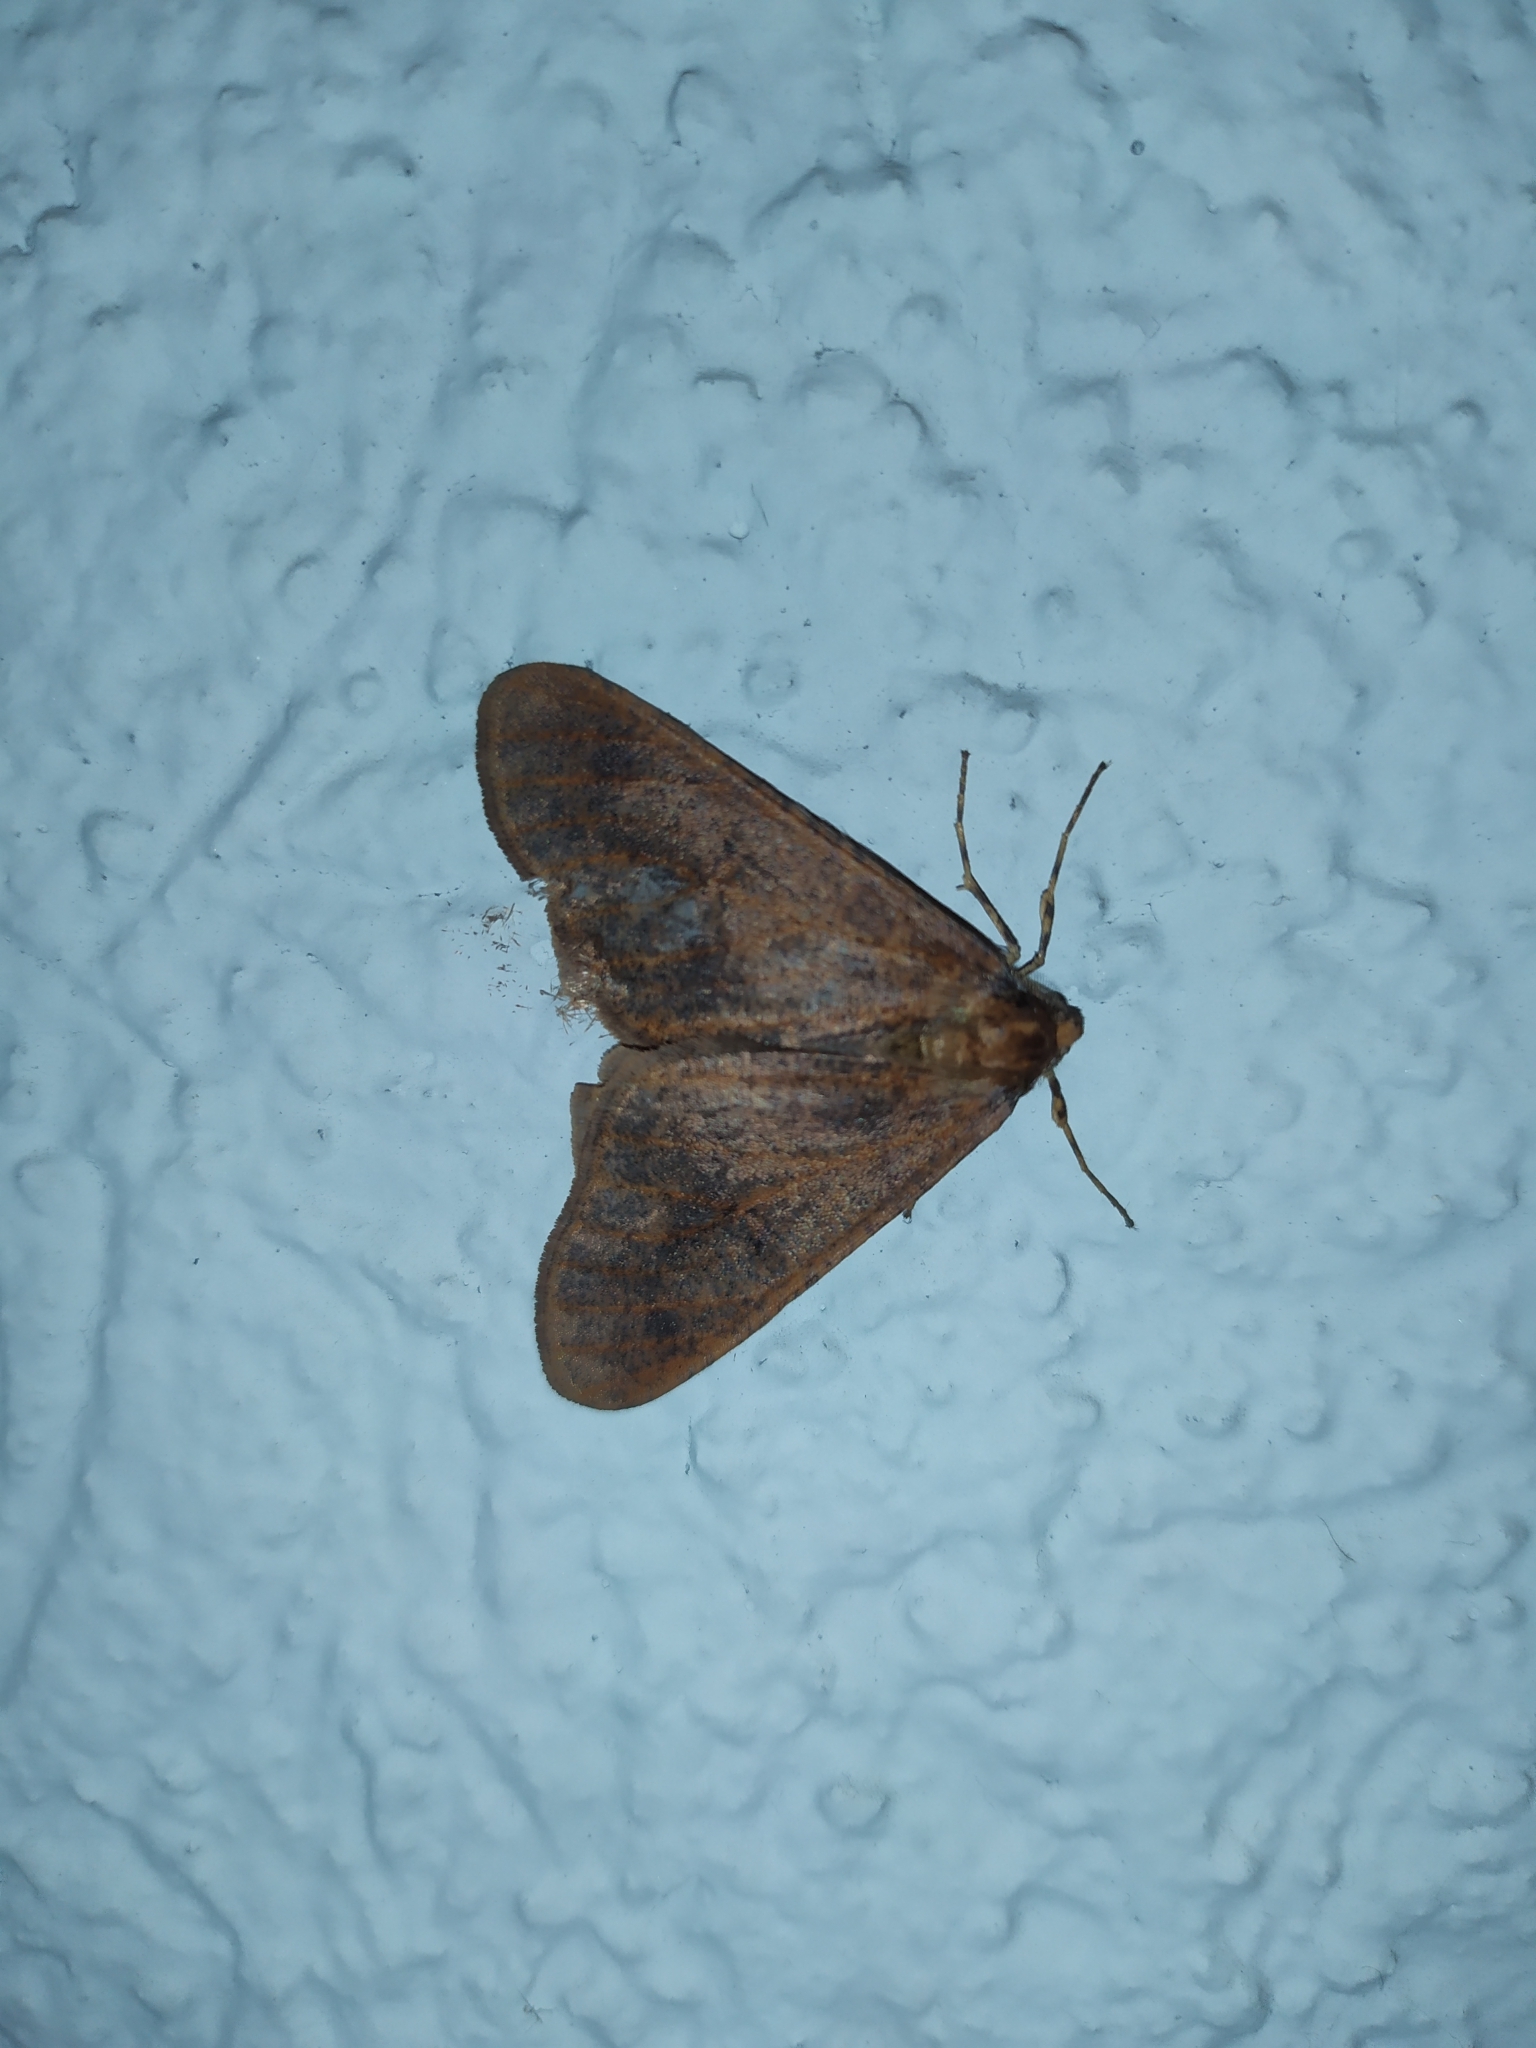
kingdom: Animalia
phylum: Arthropoda
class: Insecta
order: Lepidoptera
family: Geometridae
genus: Erannis
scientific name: Erannis defoliaria
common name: Mottled umber
